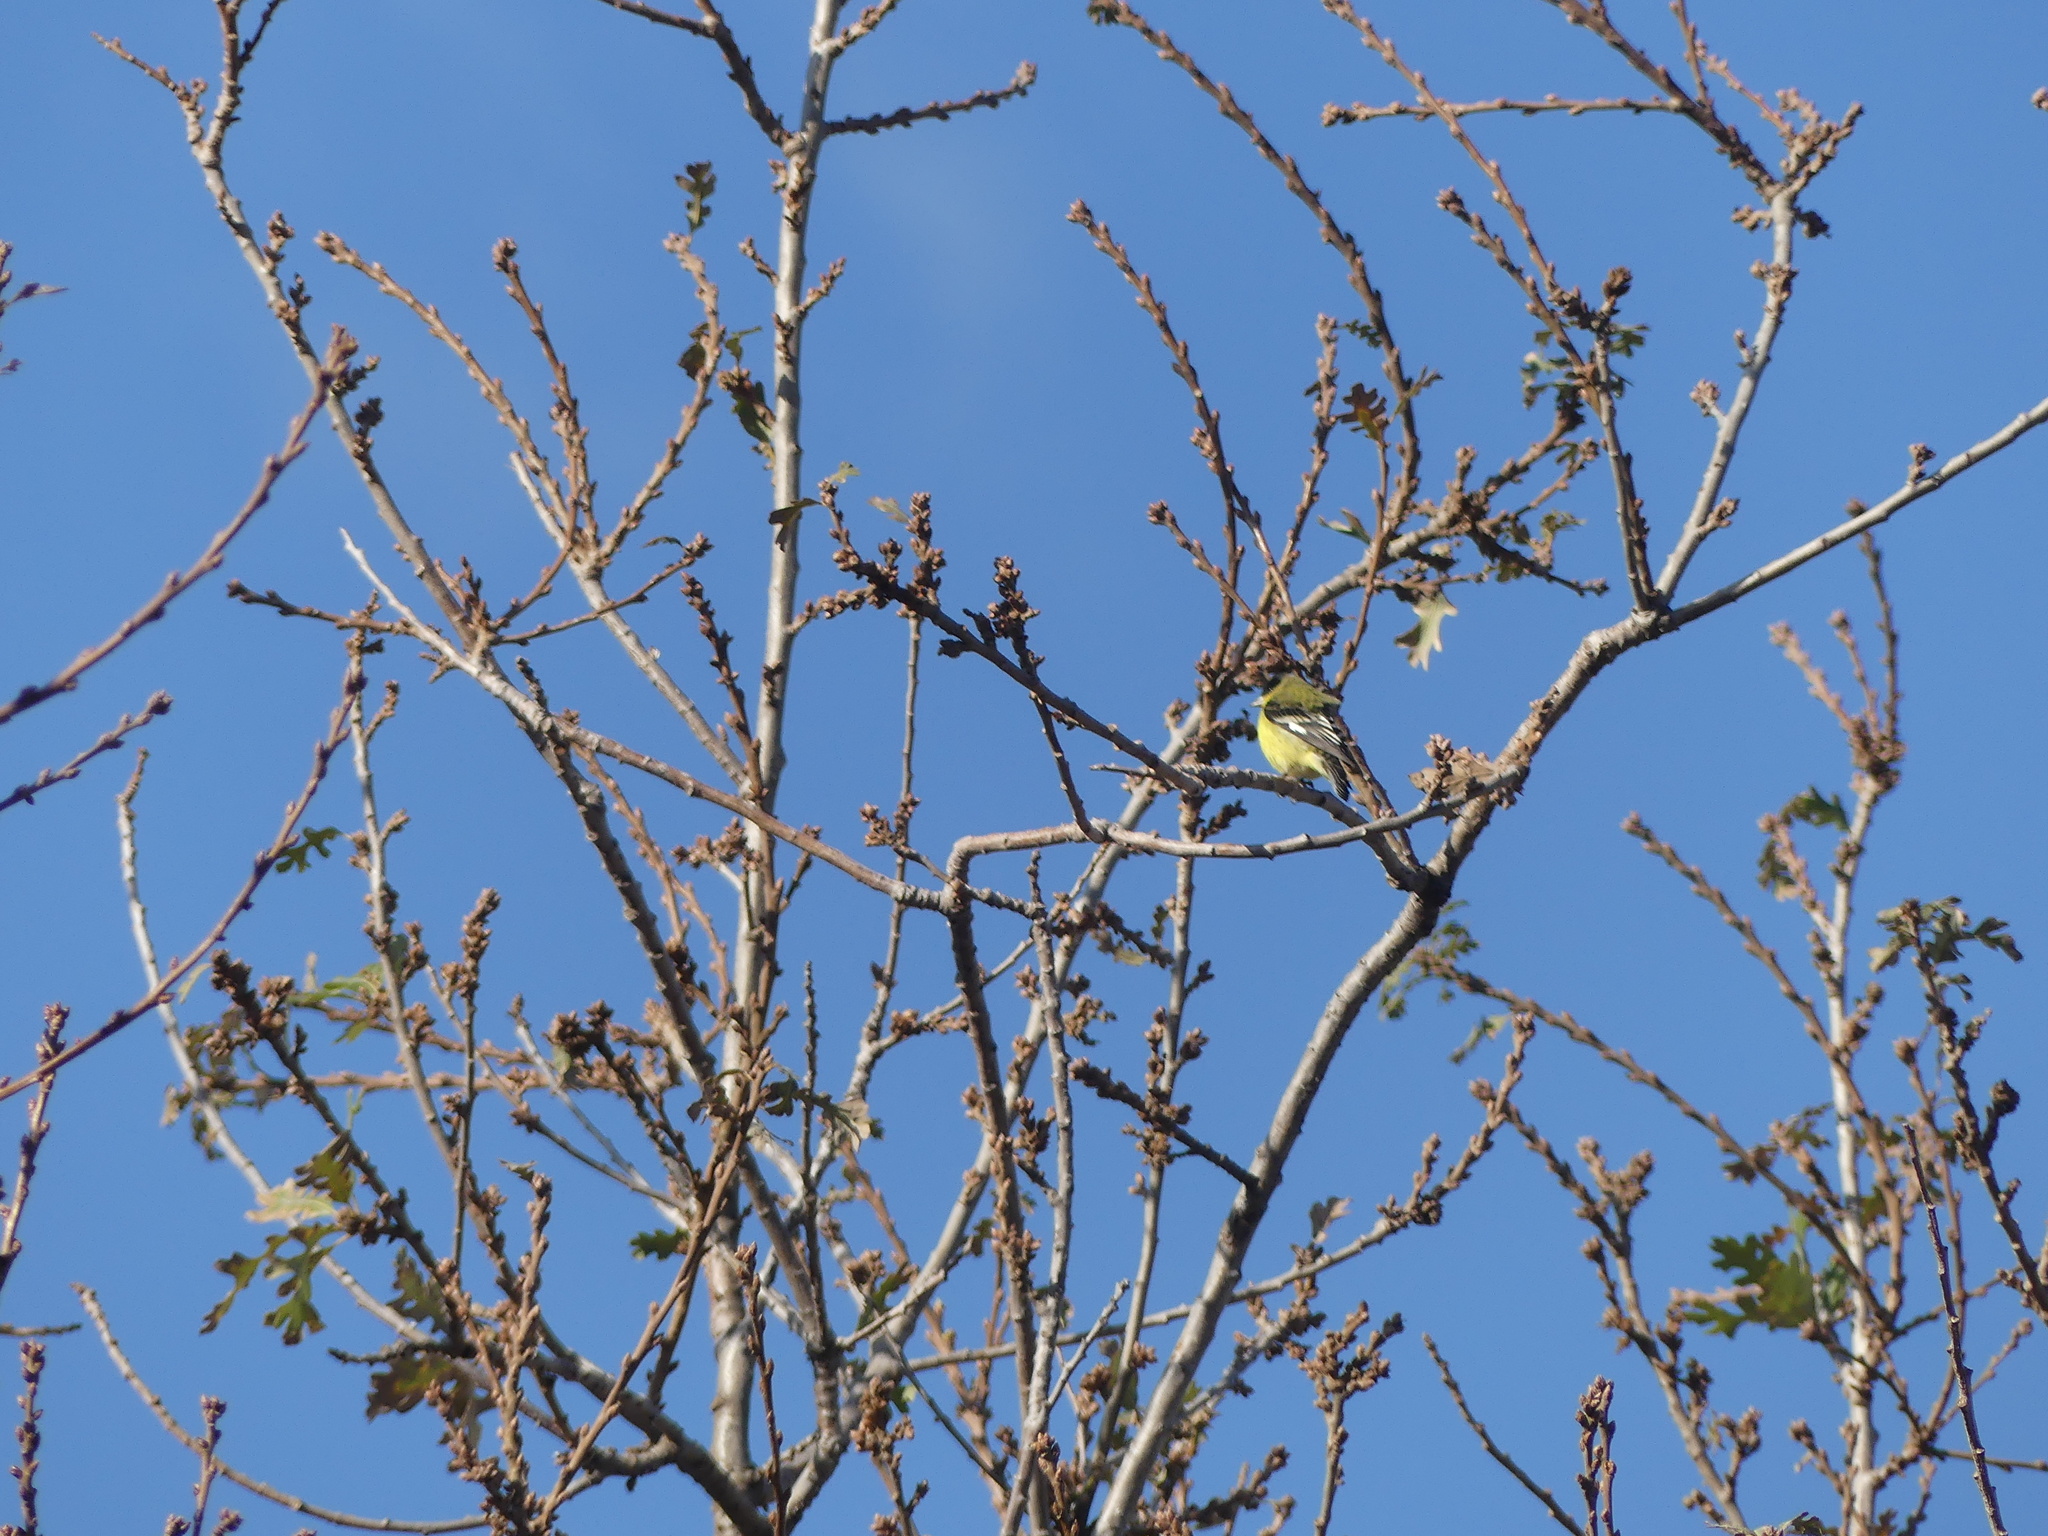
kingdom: Animalia
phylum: Chordata
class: Aves
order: Passeriformes
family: Fringillidae
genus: Spinus
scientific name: Spinus psaltria
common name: Lesser goldfinch
